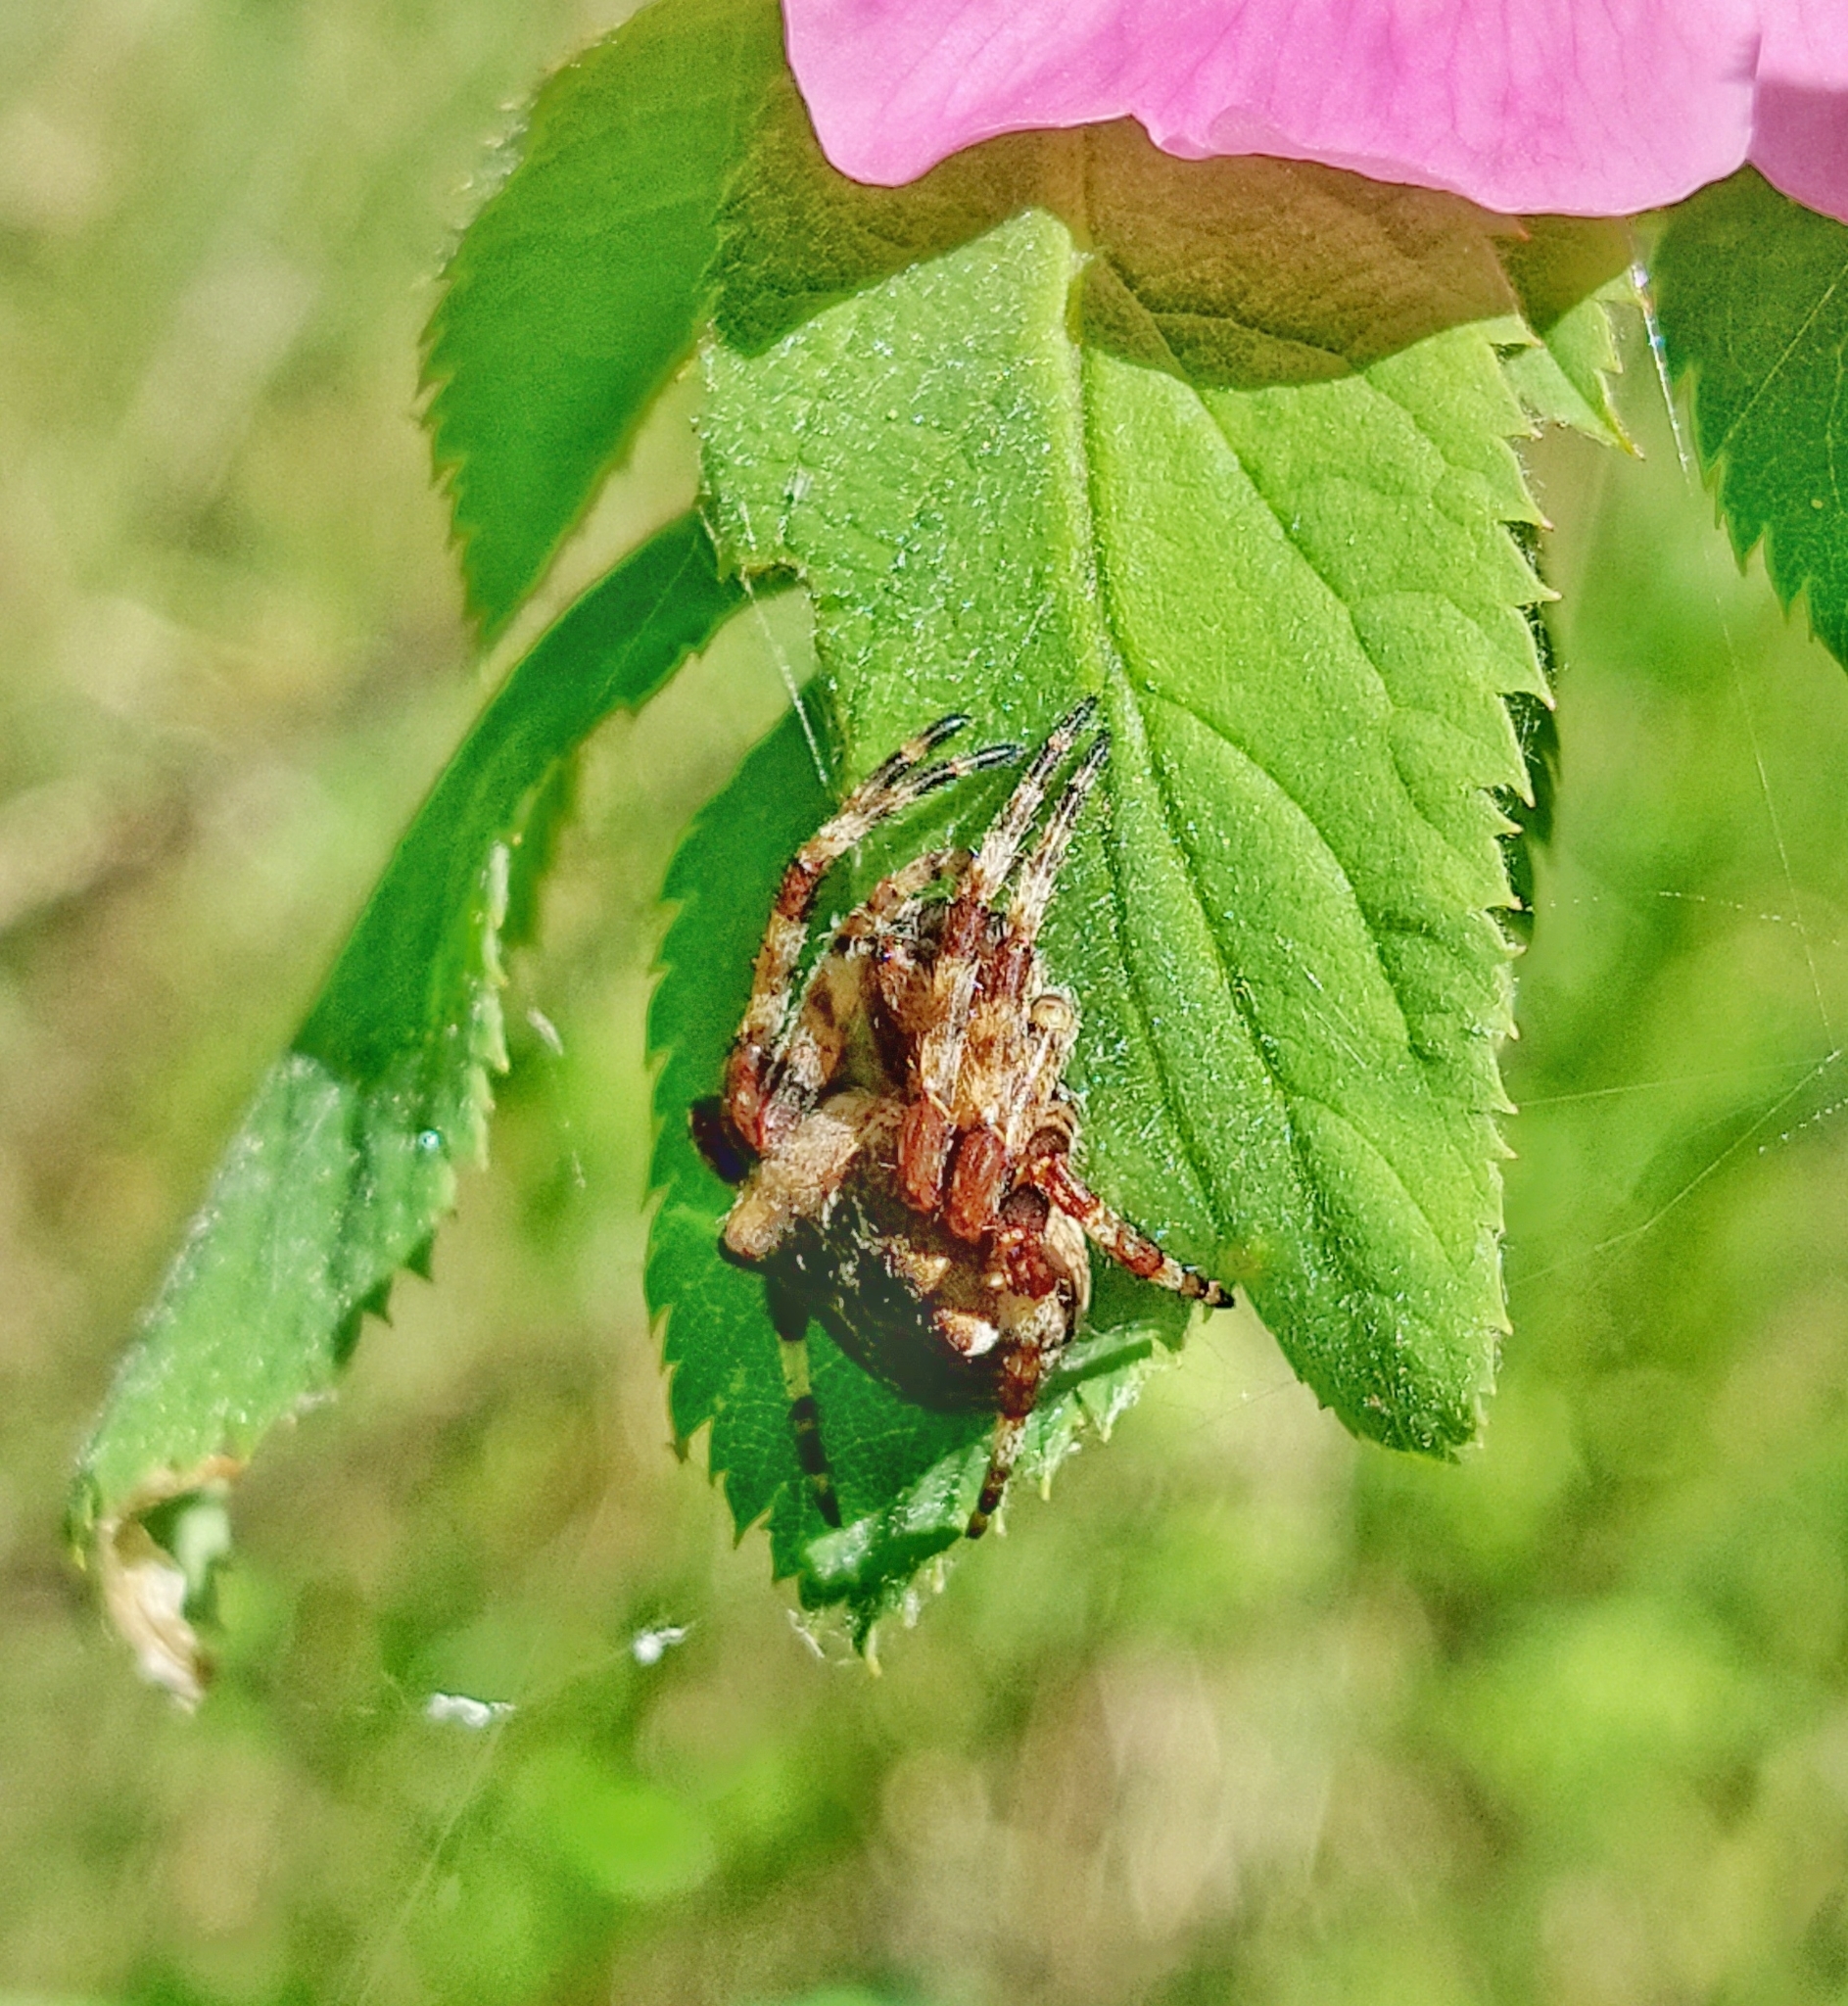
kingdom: Animalia
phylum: Arthropoda
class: Arachnida
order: Araneae
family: Araneidae
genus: Araneus
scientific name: Araneus angulatus
